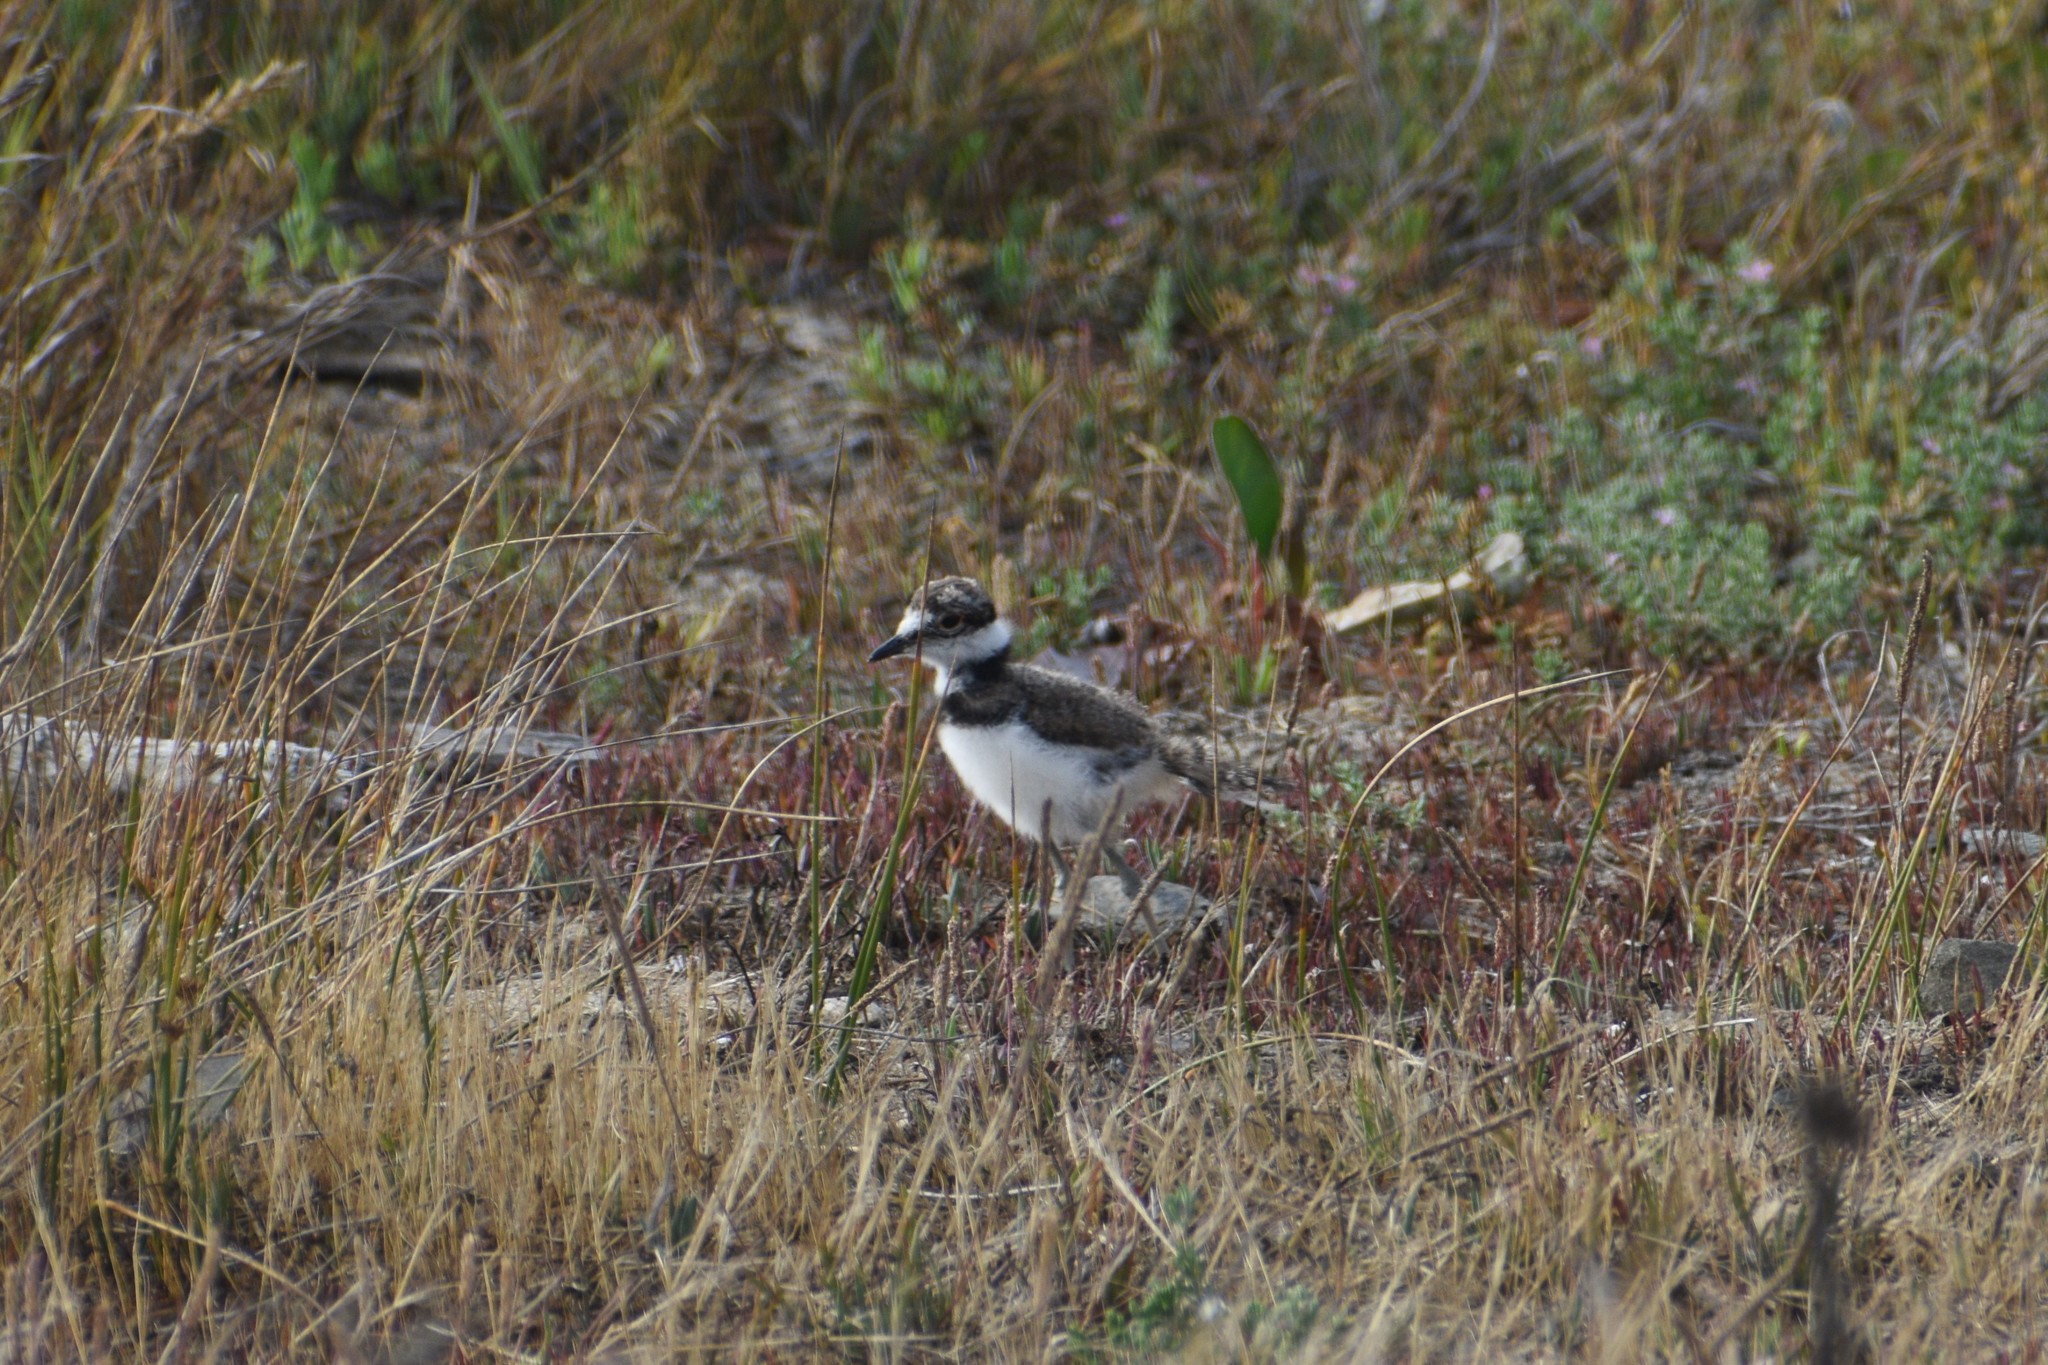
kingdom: Animalia
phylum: Chordata
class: Aves
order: Charadriiformes
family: Charadriidae
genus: Charadrius
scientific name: Charadrius vociferus
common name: Killdeer
